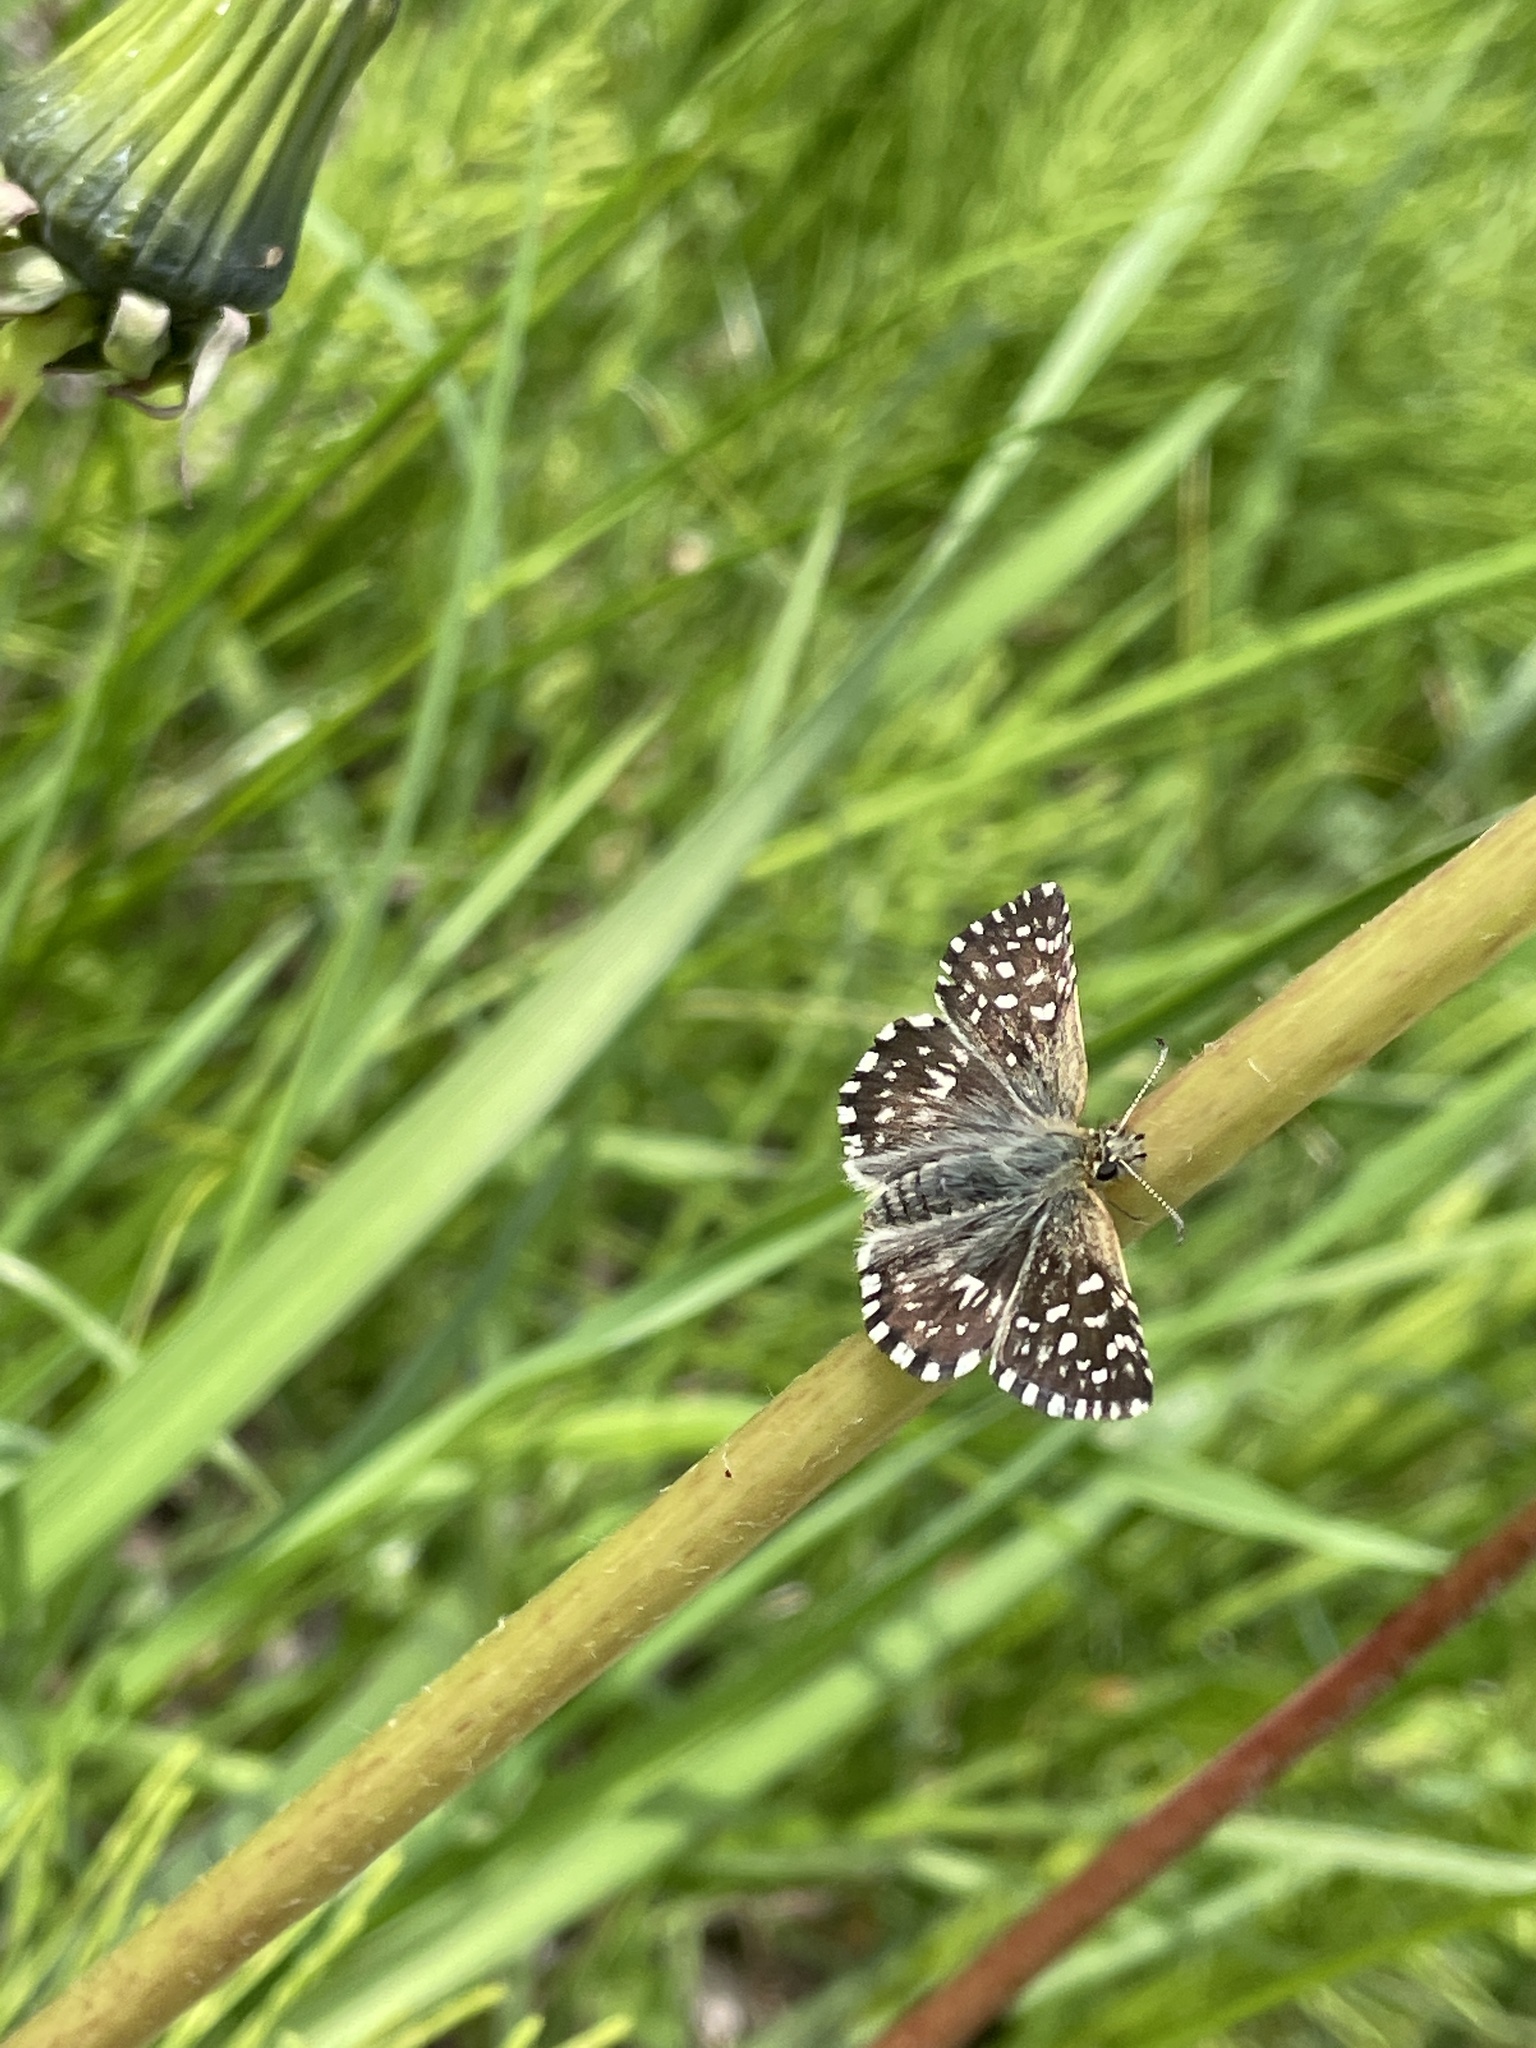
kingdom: Animalia
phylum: Arthropoda
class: Insecta
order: Lepidoptera
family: Hesperiidae
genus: Pyrgus
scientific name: Pyrgus malvae
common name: Grizzled skipper
